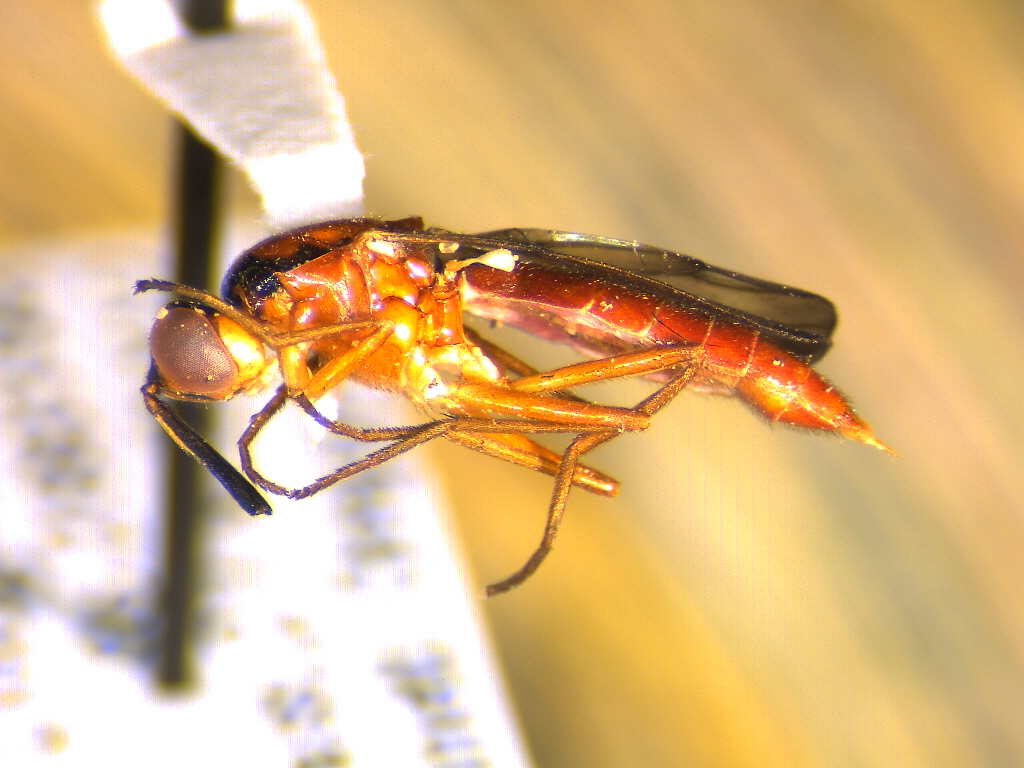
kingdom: Animalia
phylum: Arthropoda
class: Insecta
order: Diptera
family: Psilidae
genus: Loxocera
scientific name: Loxocera cylindrica
